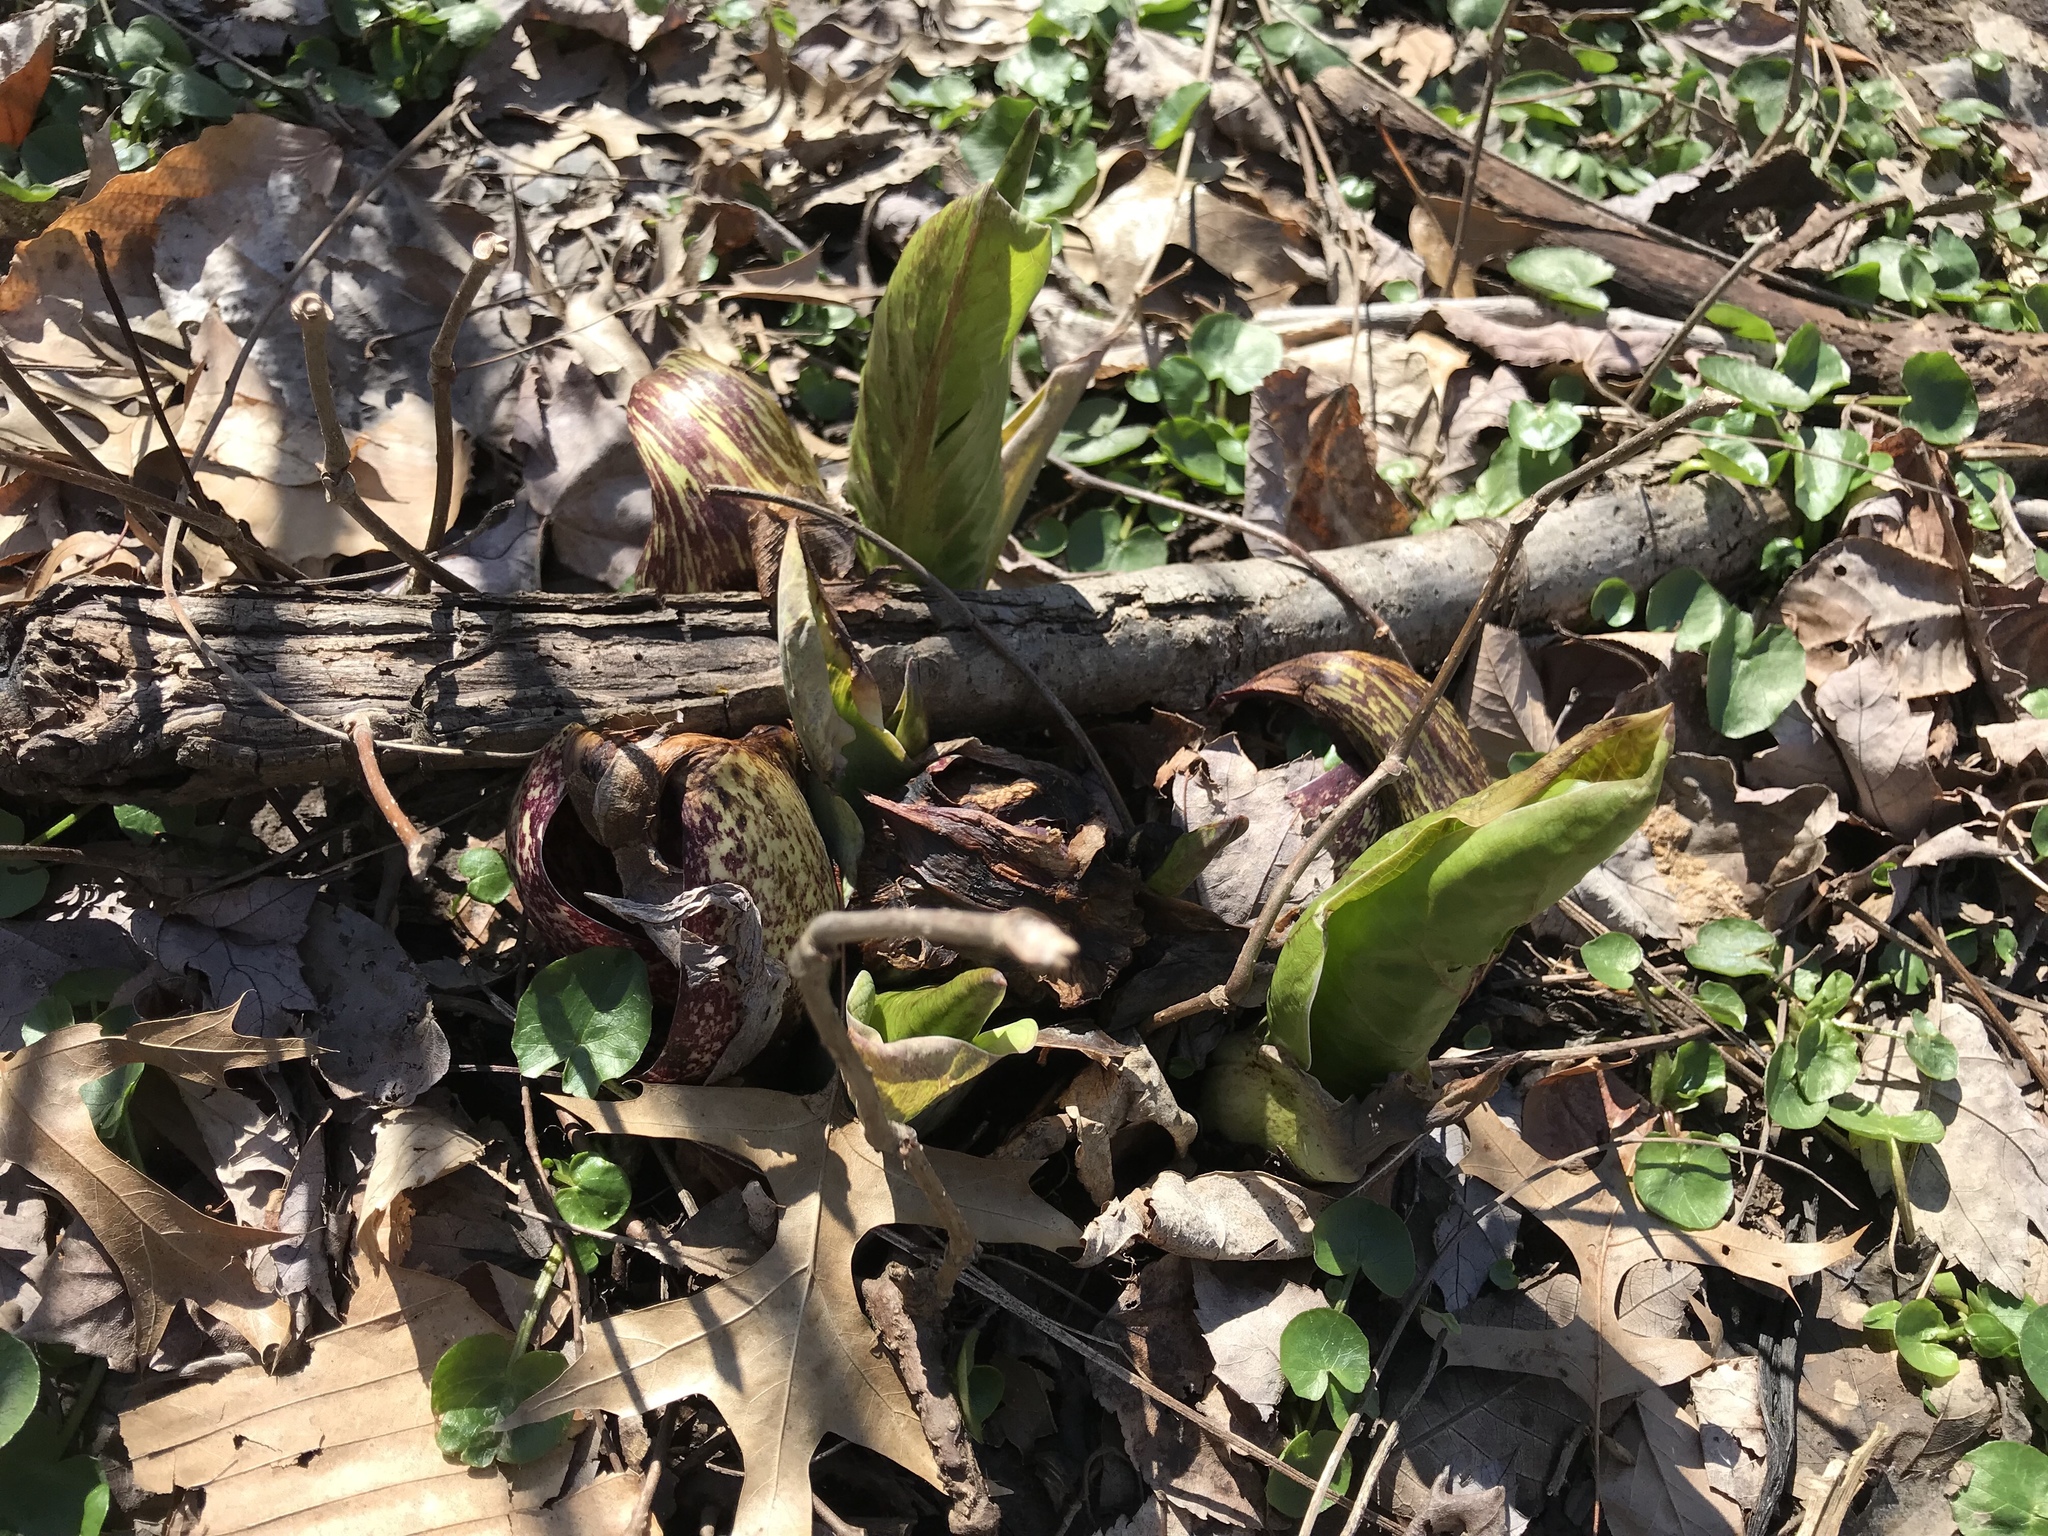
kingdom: Plantae
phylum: Tracheophyta
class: Liliopsida
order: Alismatales
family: Araceae
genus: Symplocarpus
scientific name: Symplocarpus foetidus
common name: Eastern skunk cabbage
